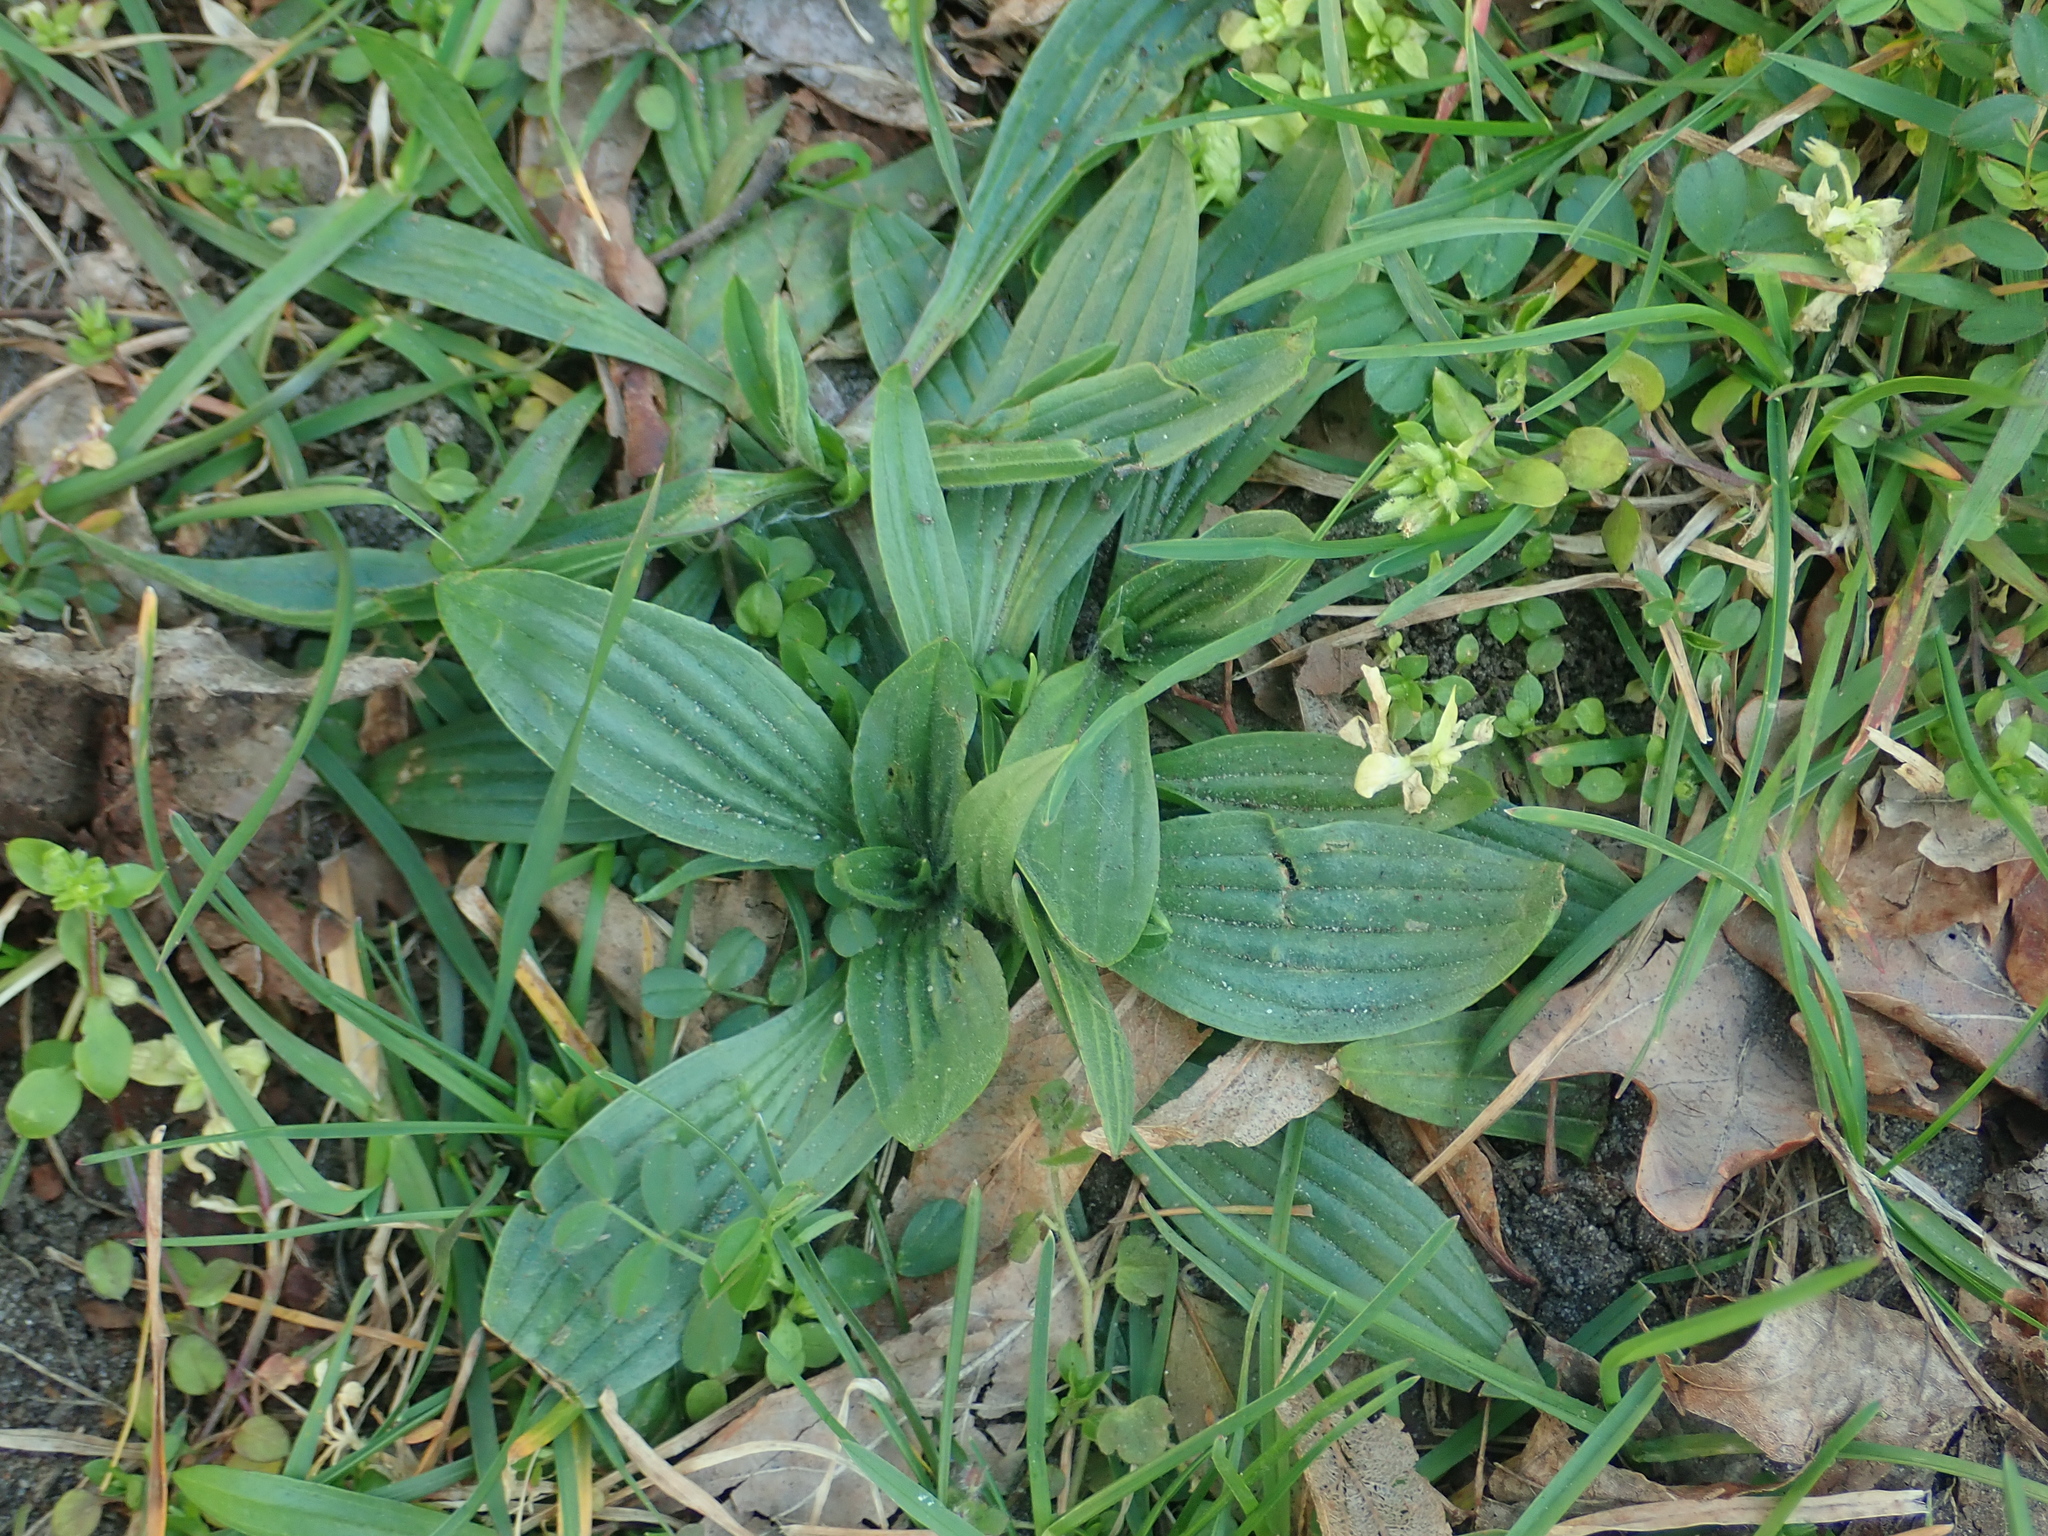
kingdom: Plantae
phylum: Tracheophyta
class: Magnoliopsida
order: Lamiales
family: Plantaginaceae
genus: Plantago
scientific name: Plantago lanceolata
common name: Ribwort plantain
